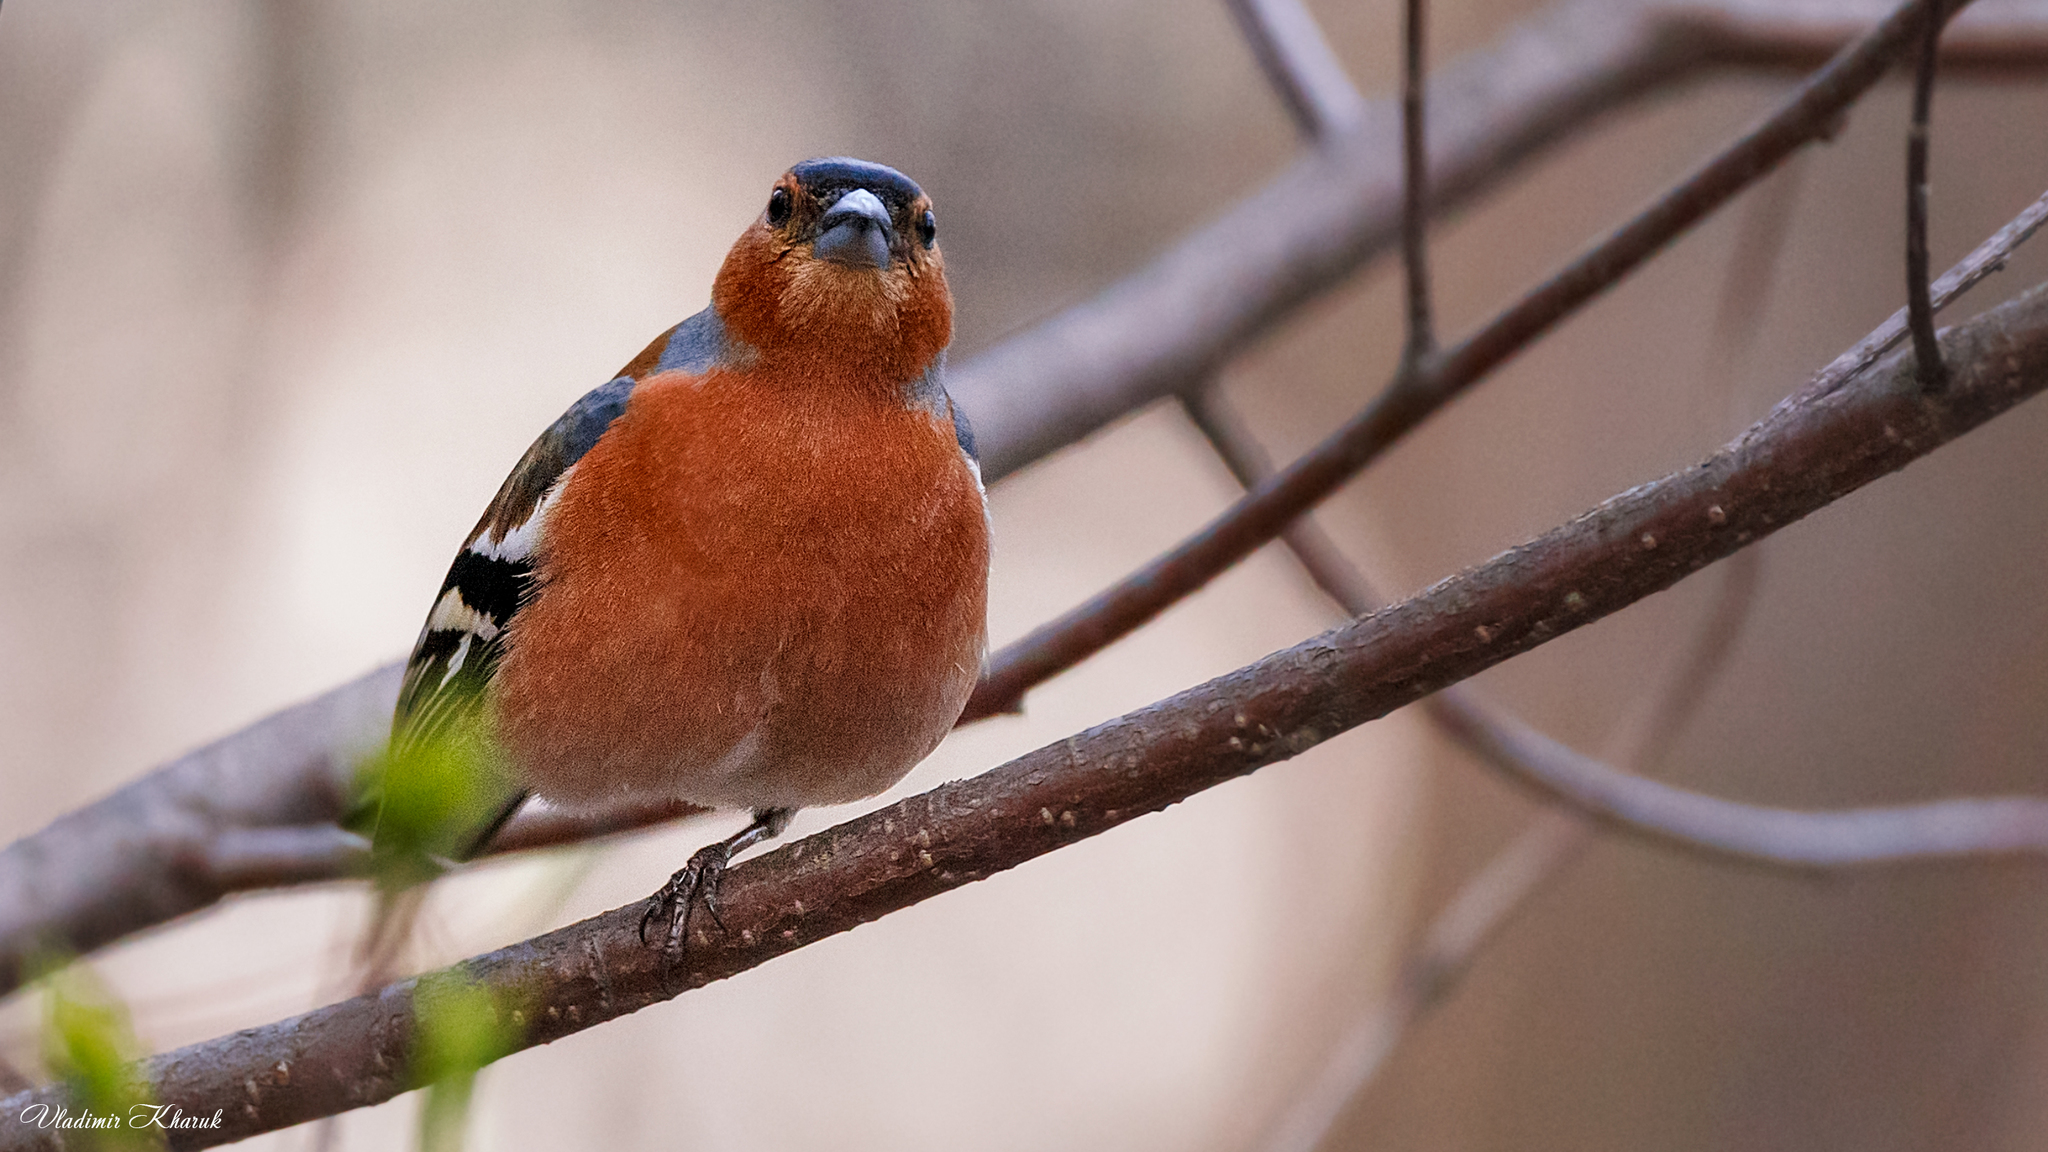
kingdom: Animalia
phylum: Chordata
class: Aves
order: Passeriformes
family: Fringillidae
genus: Fringilla
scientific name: Fringilla coelebs
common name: Common chaffinch
